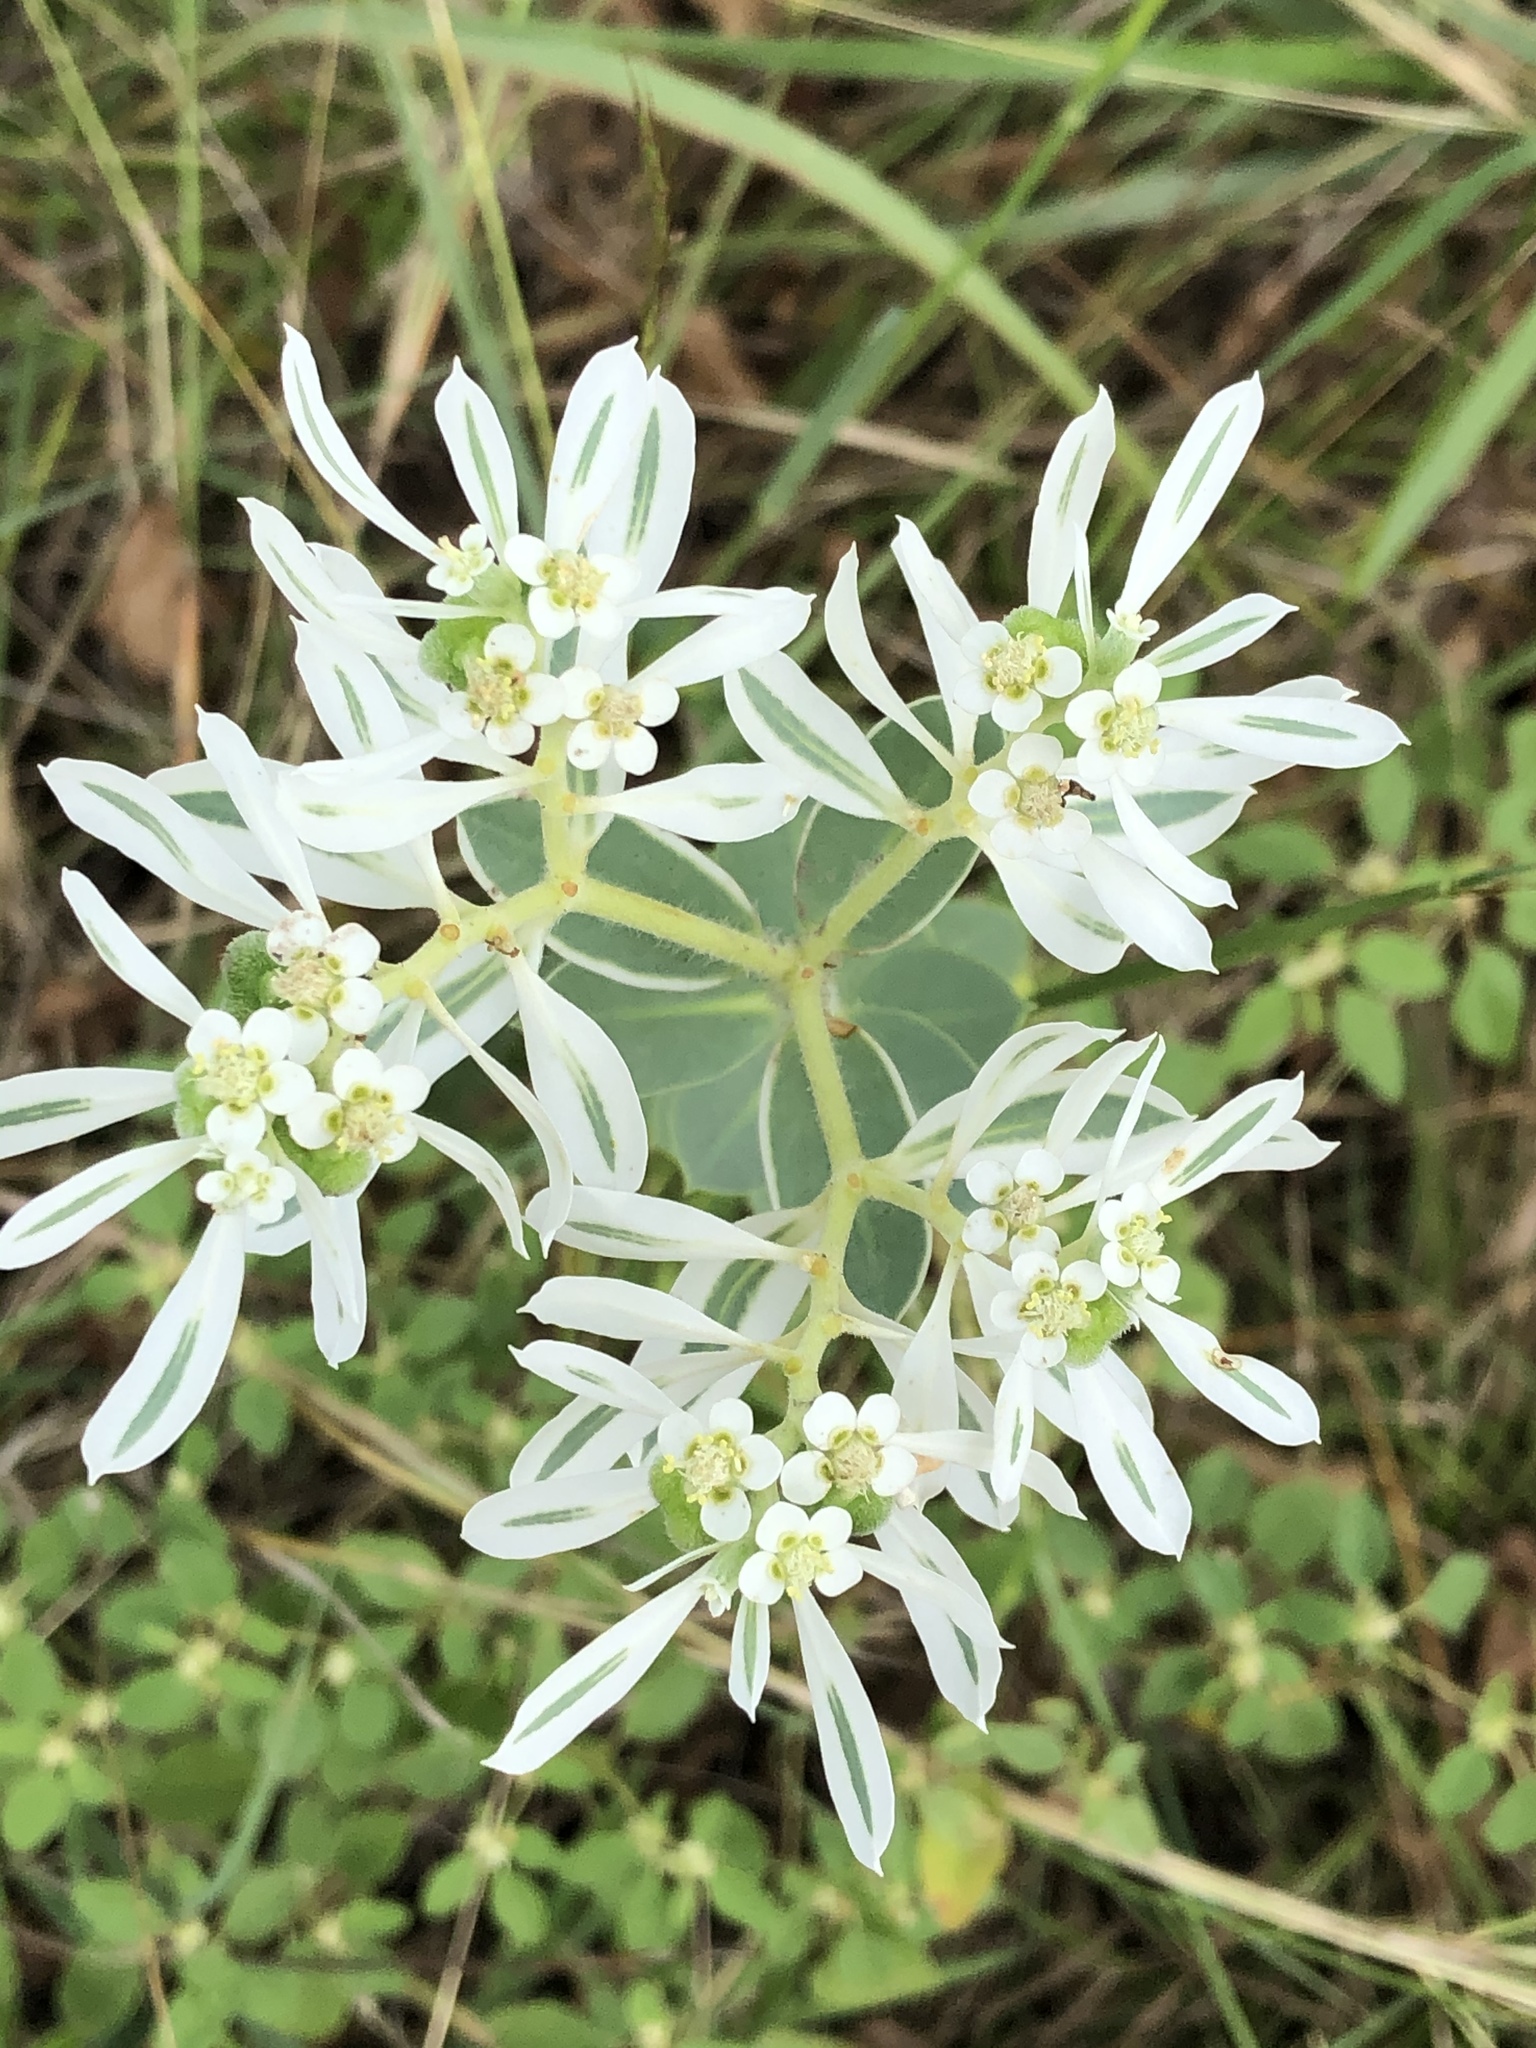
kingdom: Plantae
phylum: Tracheophyta
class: Magnoliopsida
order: Malpighiales
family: Euphorbiaceae
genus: Euphorbia
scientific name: Euphorbia marginata
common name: Ghostweed
